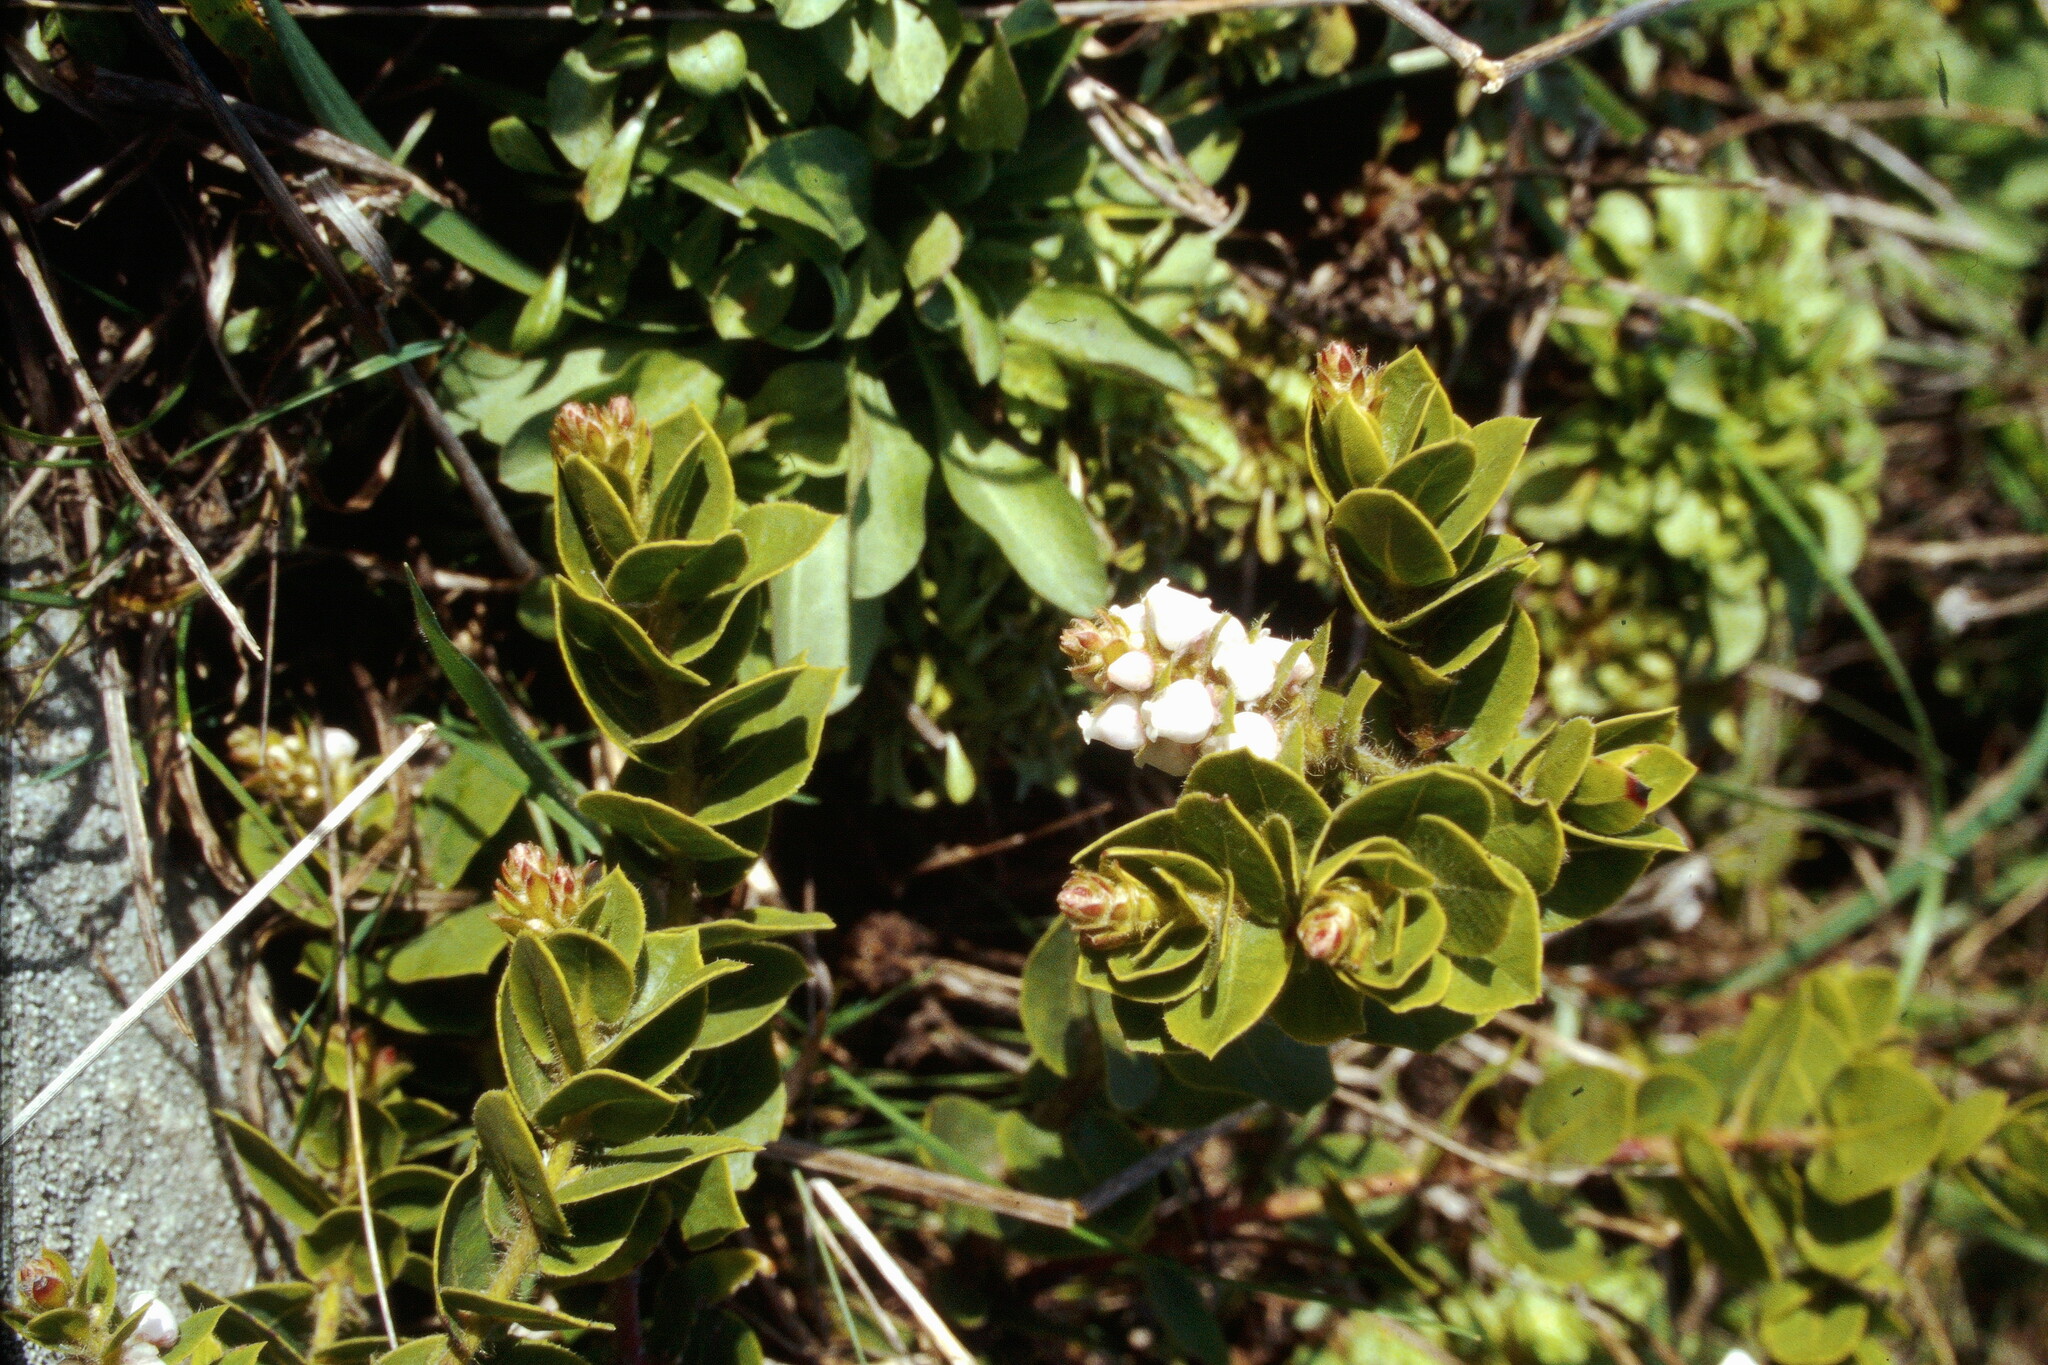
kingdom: Plantae
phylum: Tracheophyta
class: Magnoliopsida
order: Ericales
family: Ericaceae
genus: Arctostaphylos
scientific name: Arctostaphylos imbricata
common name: San bruno mountain manzanita
